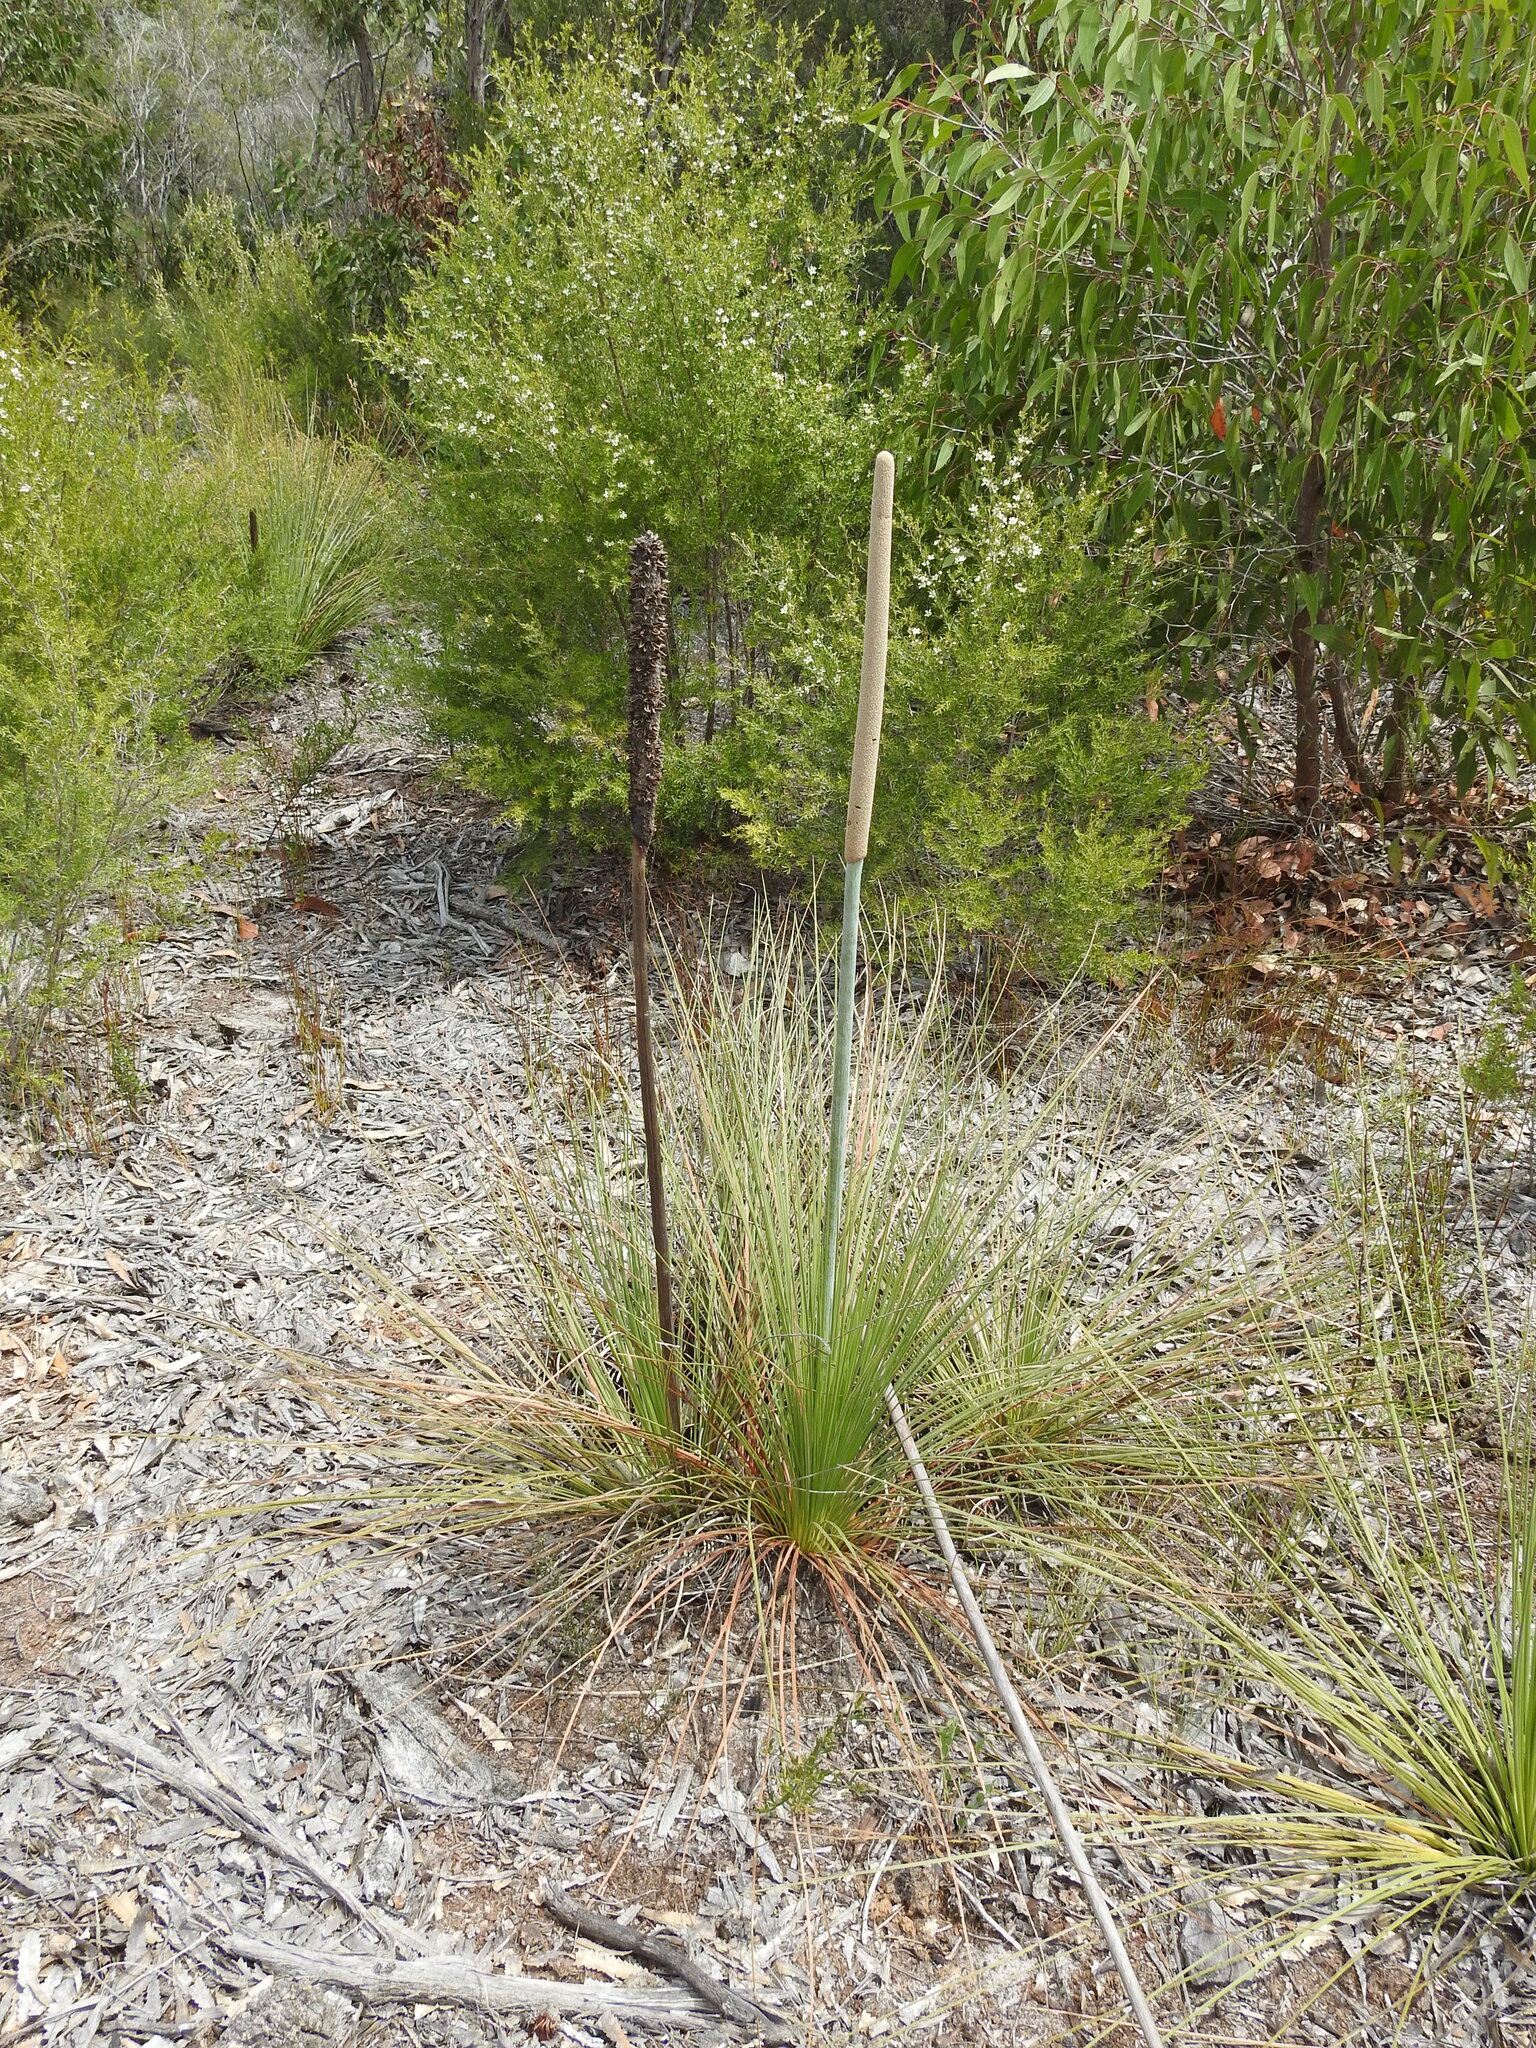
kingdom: Plantae
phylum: Tracheophyta
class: Liliopsida
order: Asparagales
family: Asphodelaceae
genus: Xanthorrhoea
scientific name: Xanthorrhoea fulva
